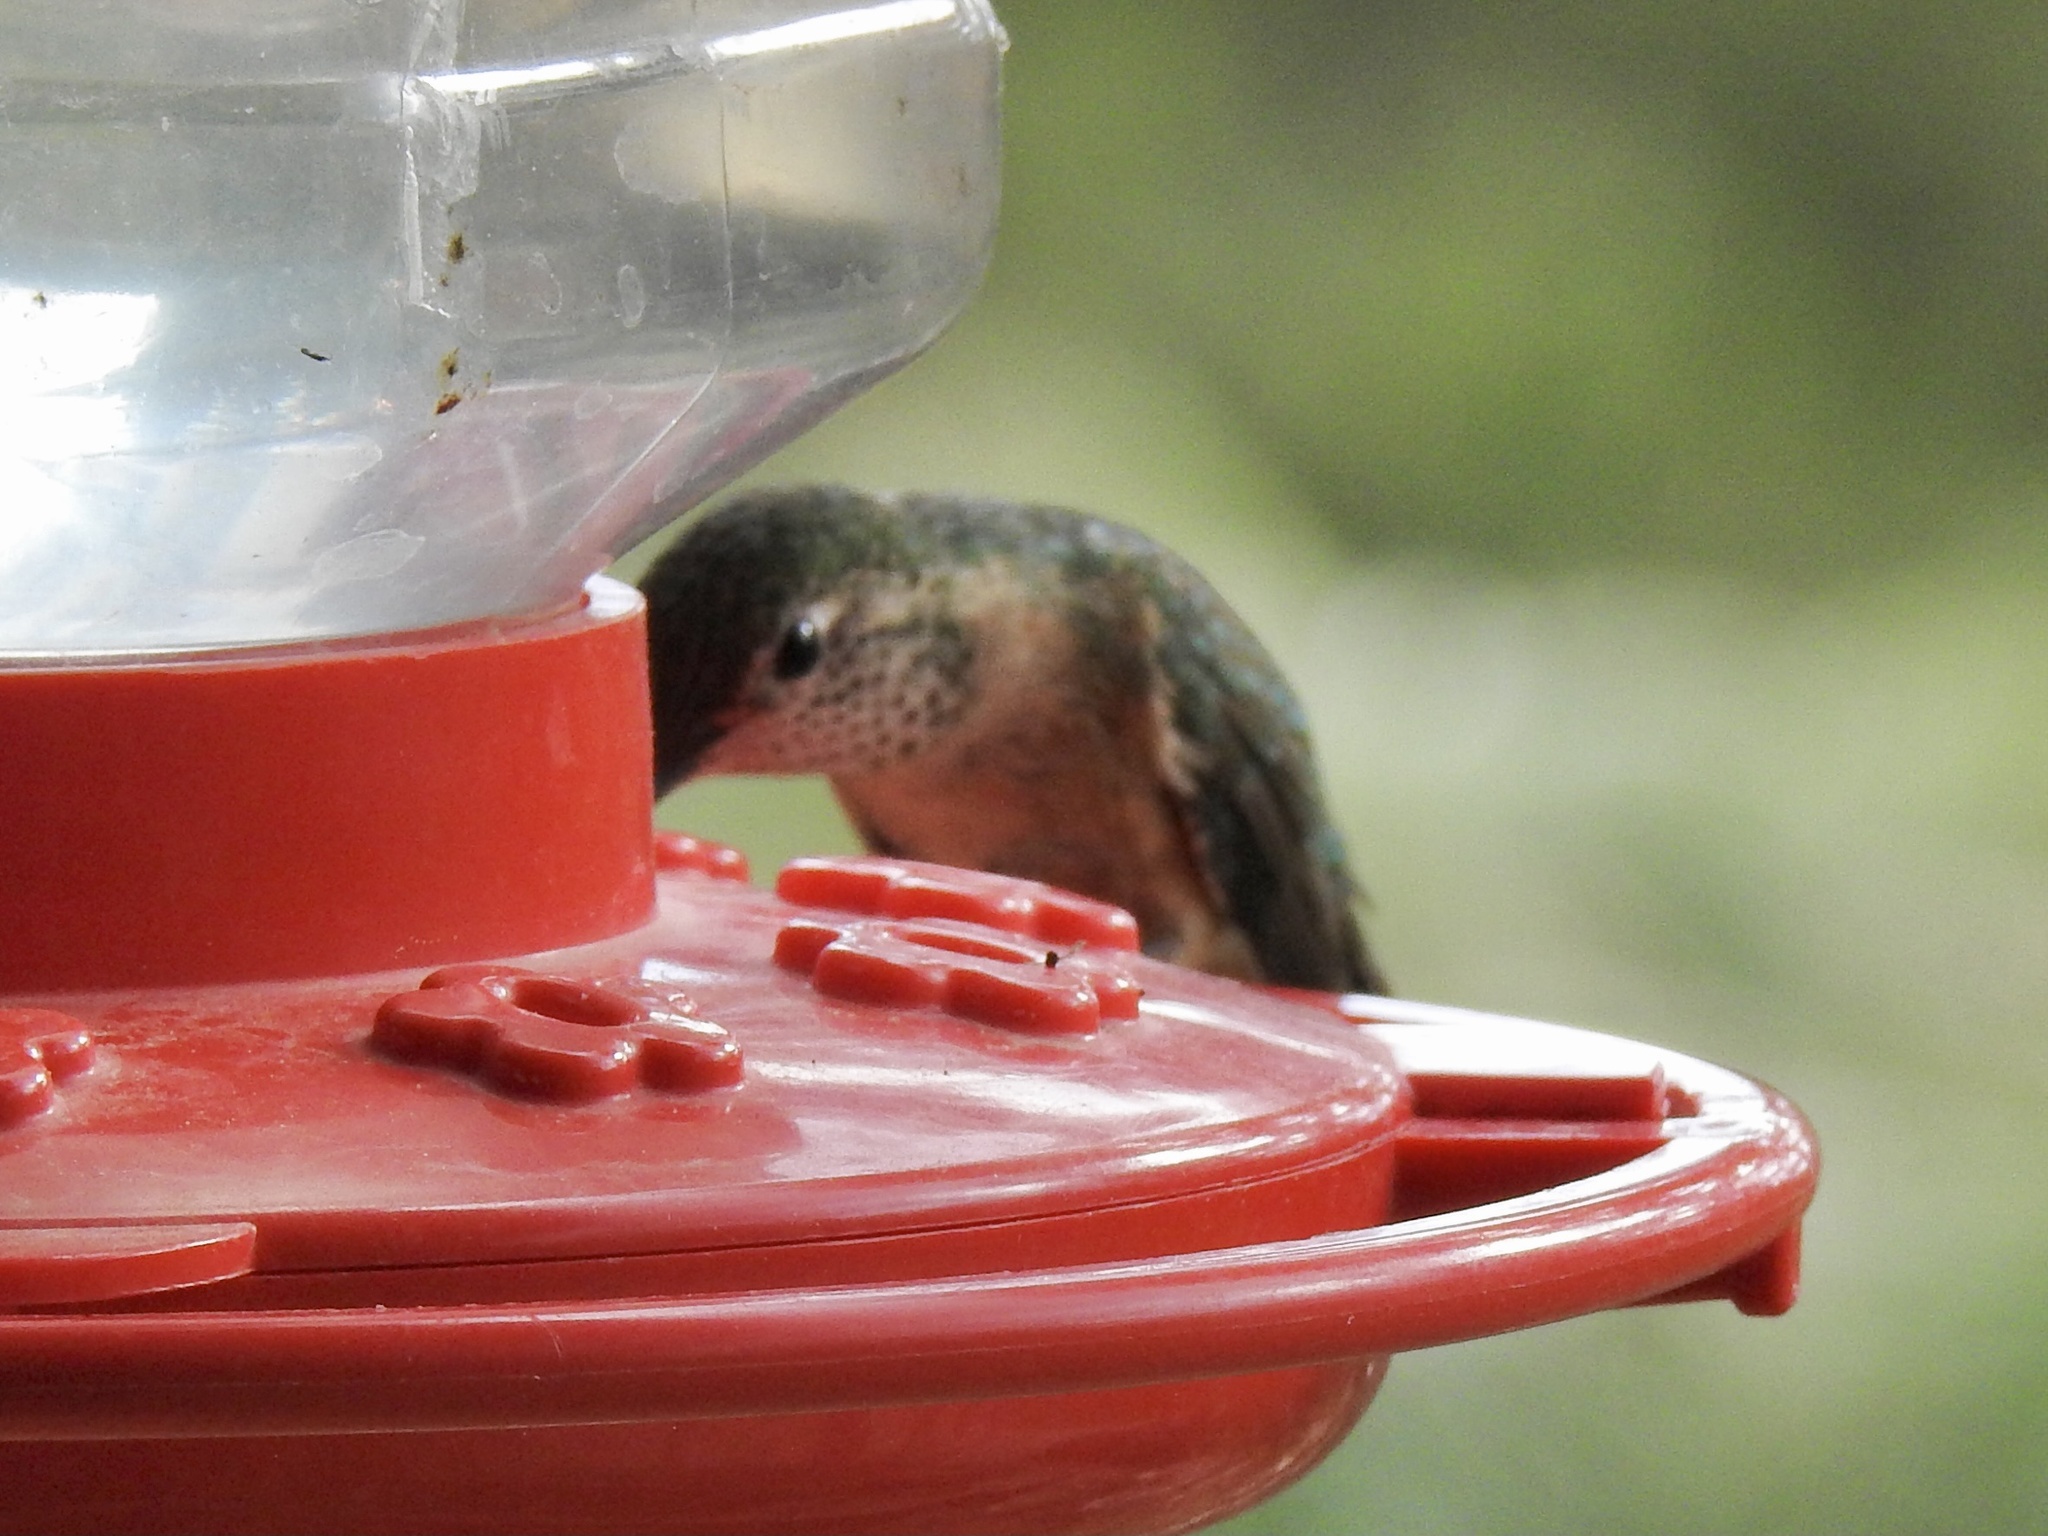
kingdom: Animalia
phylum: Chordata
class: Aves
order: Apodiformes
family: Trochilidae
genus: Selasphorus
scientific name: Selasphorus platycercus
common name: Broad-tailed hummingbird
